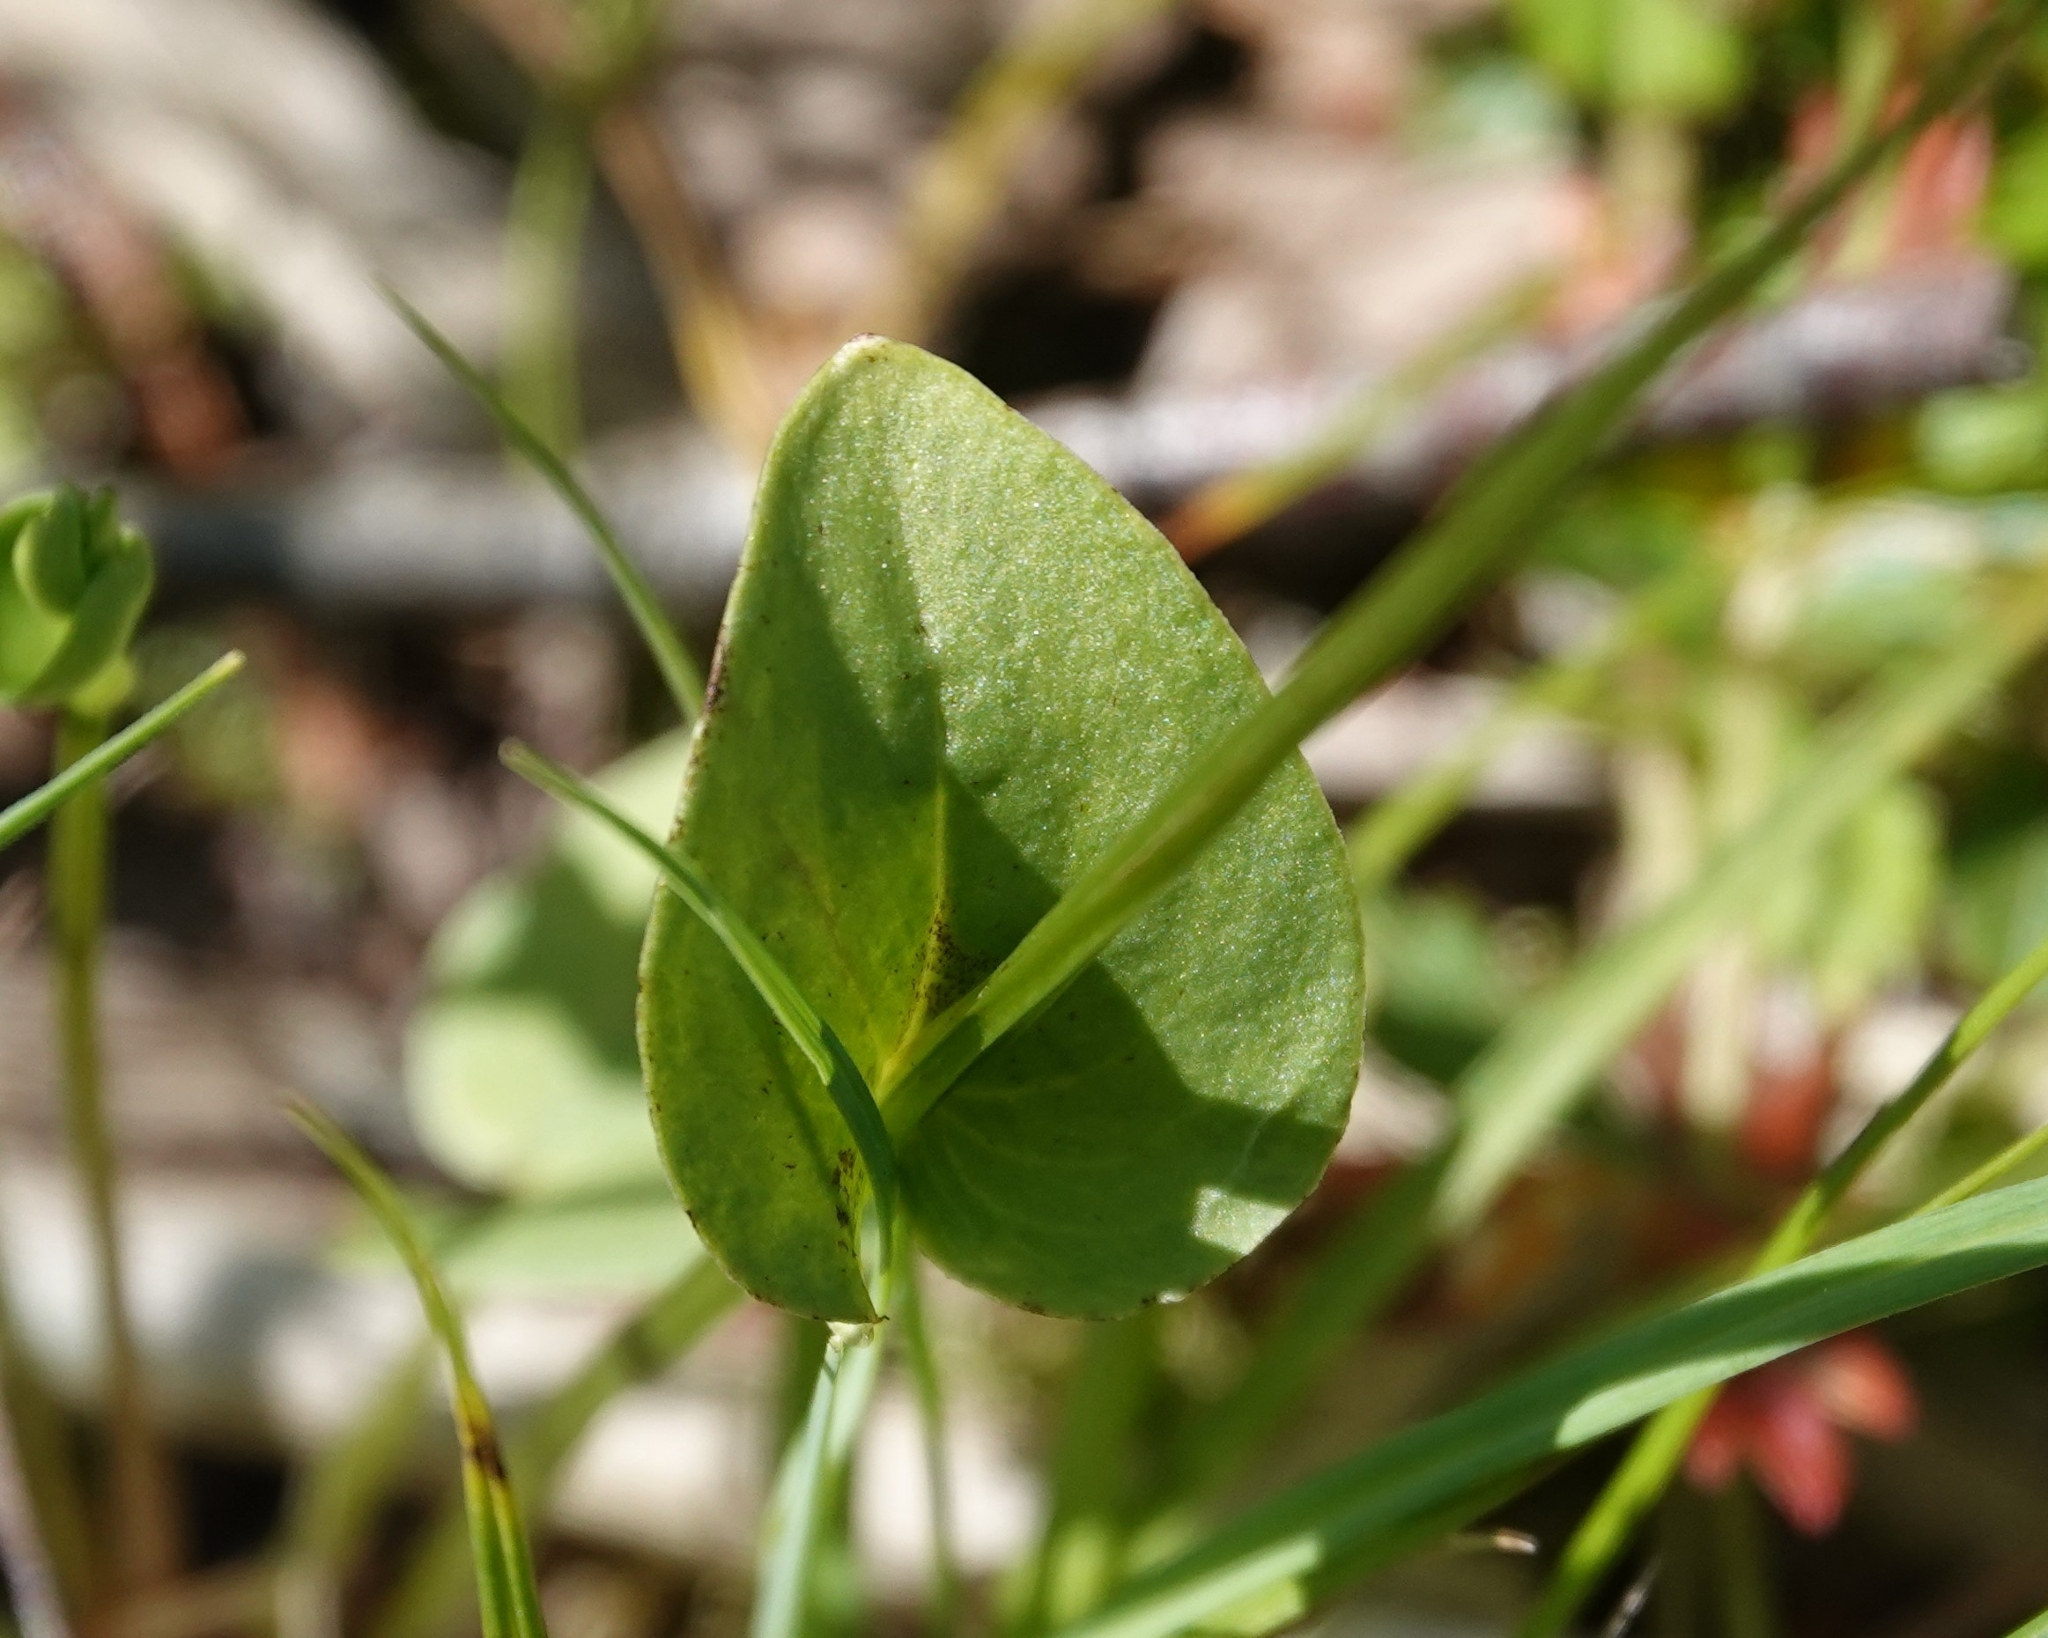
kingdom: Plantae
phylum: Tracheophyta
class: Magnoliopsida
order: Celastrales
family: Parnassiaceae
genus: Parnassia
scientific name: Parnassia palustris
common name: Grass-of-parnassus
